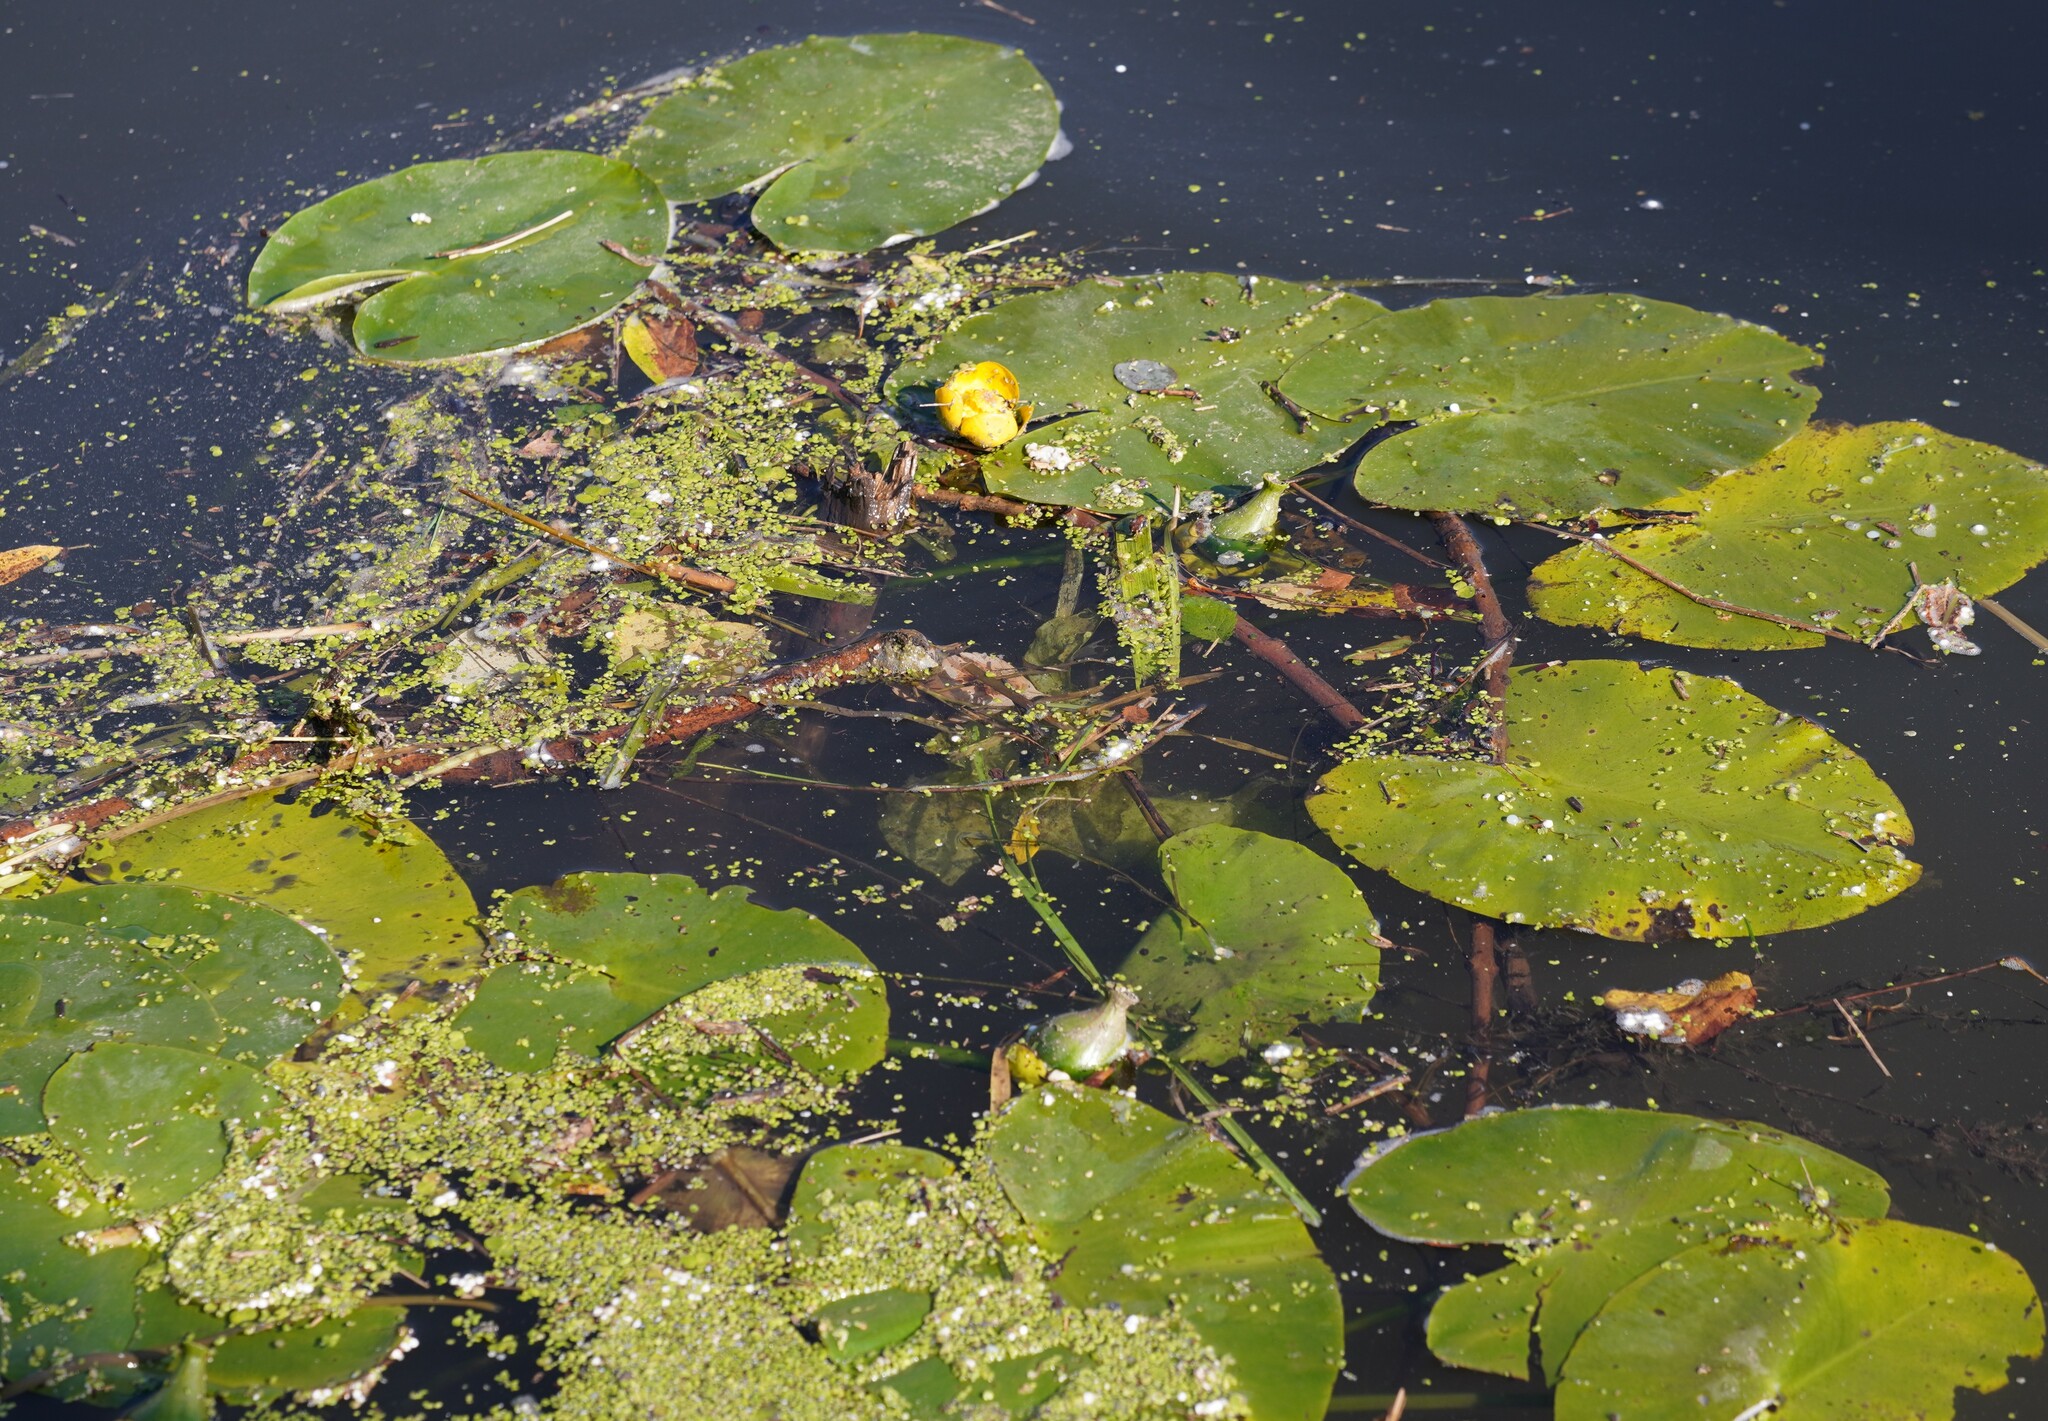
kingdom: Plantae
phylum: Tracheophyta
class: Magnoliopsida
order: Nymphaeales
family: Nymphaeaceae
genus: Nuphar
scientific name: Nuphar lutea
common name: Yellow water-lily
